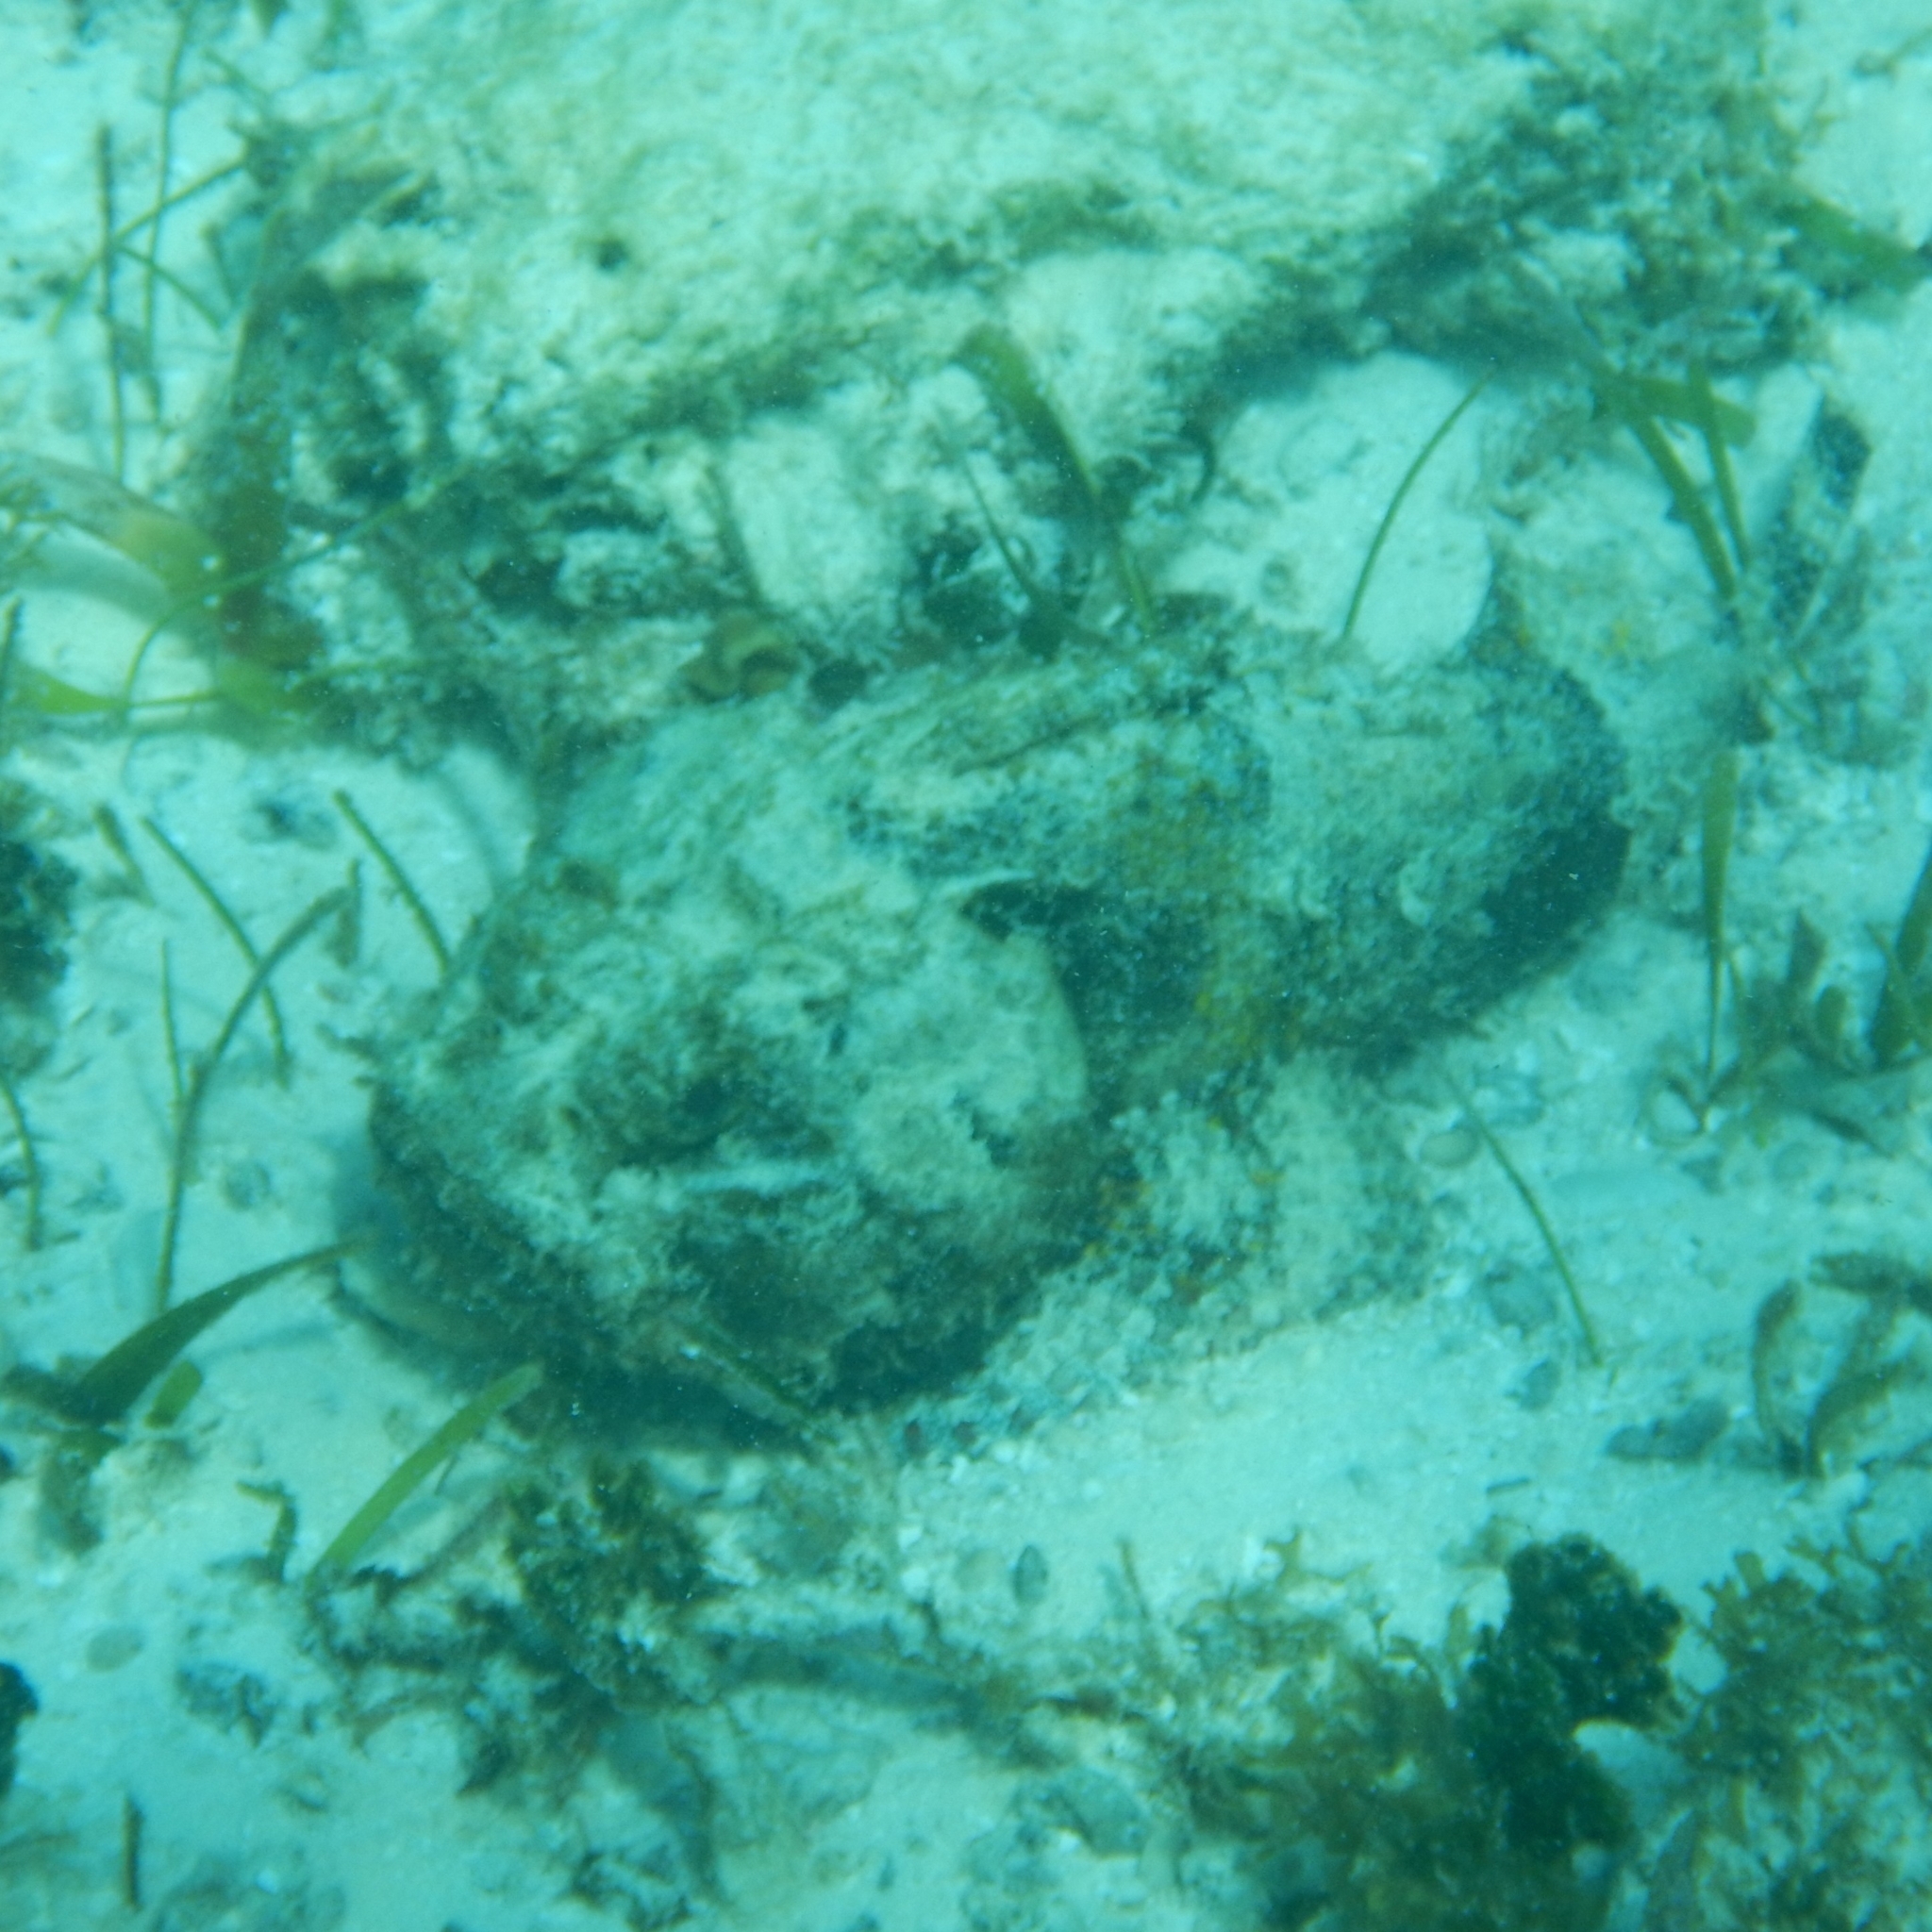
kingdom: Animalia
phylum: Chordata
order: Scorpaeniformes
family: Scorpaenidae
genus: Scorpaena
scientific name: Scorpaena plumieri
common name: Spotted scorpionfish
